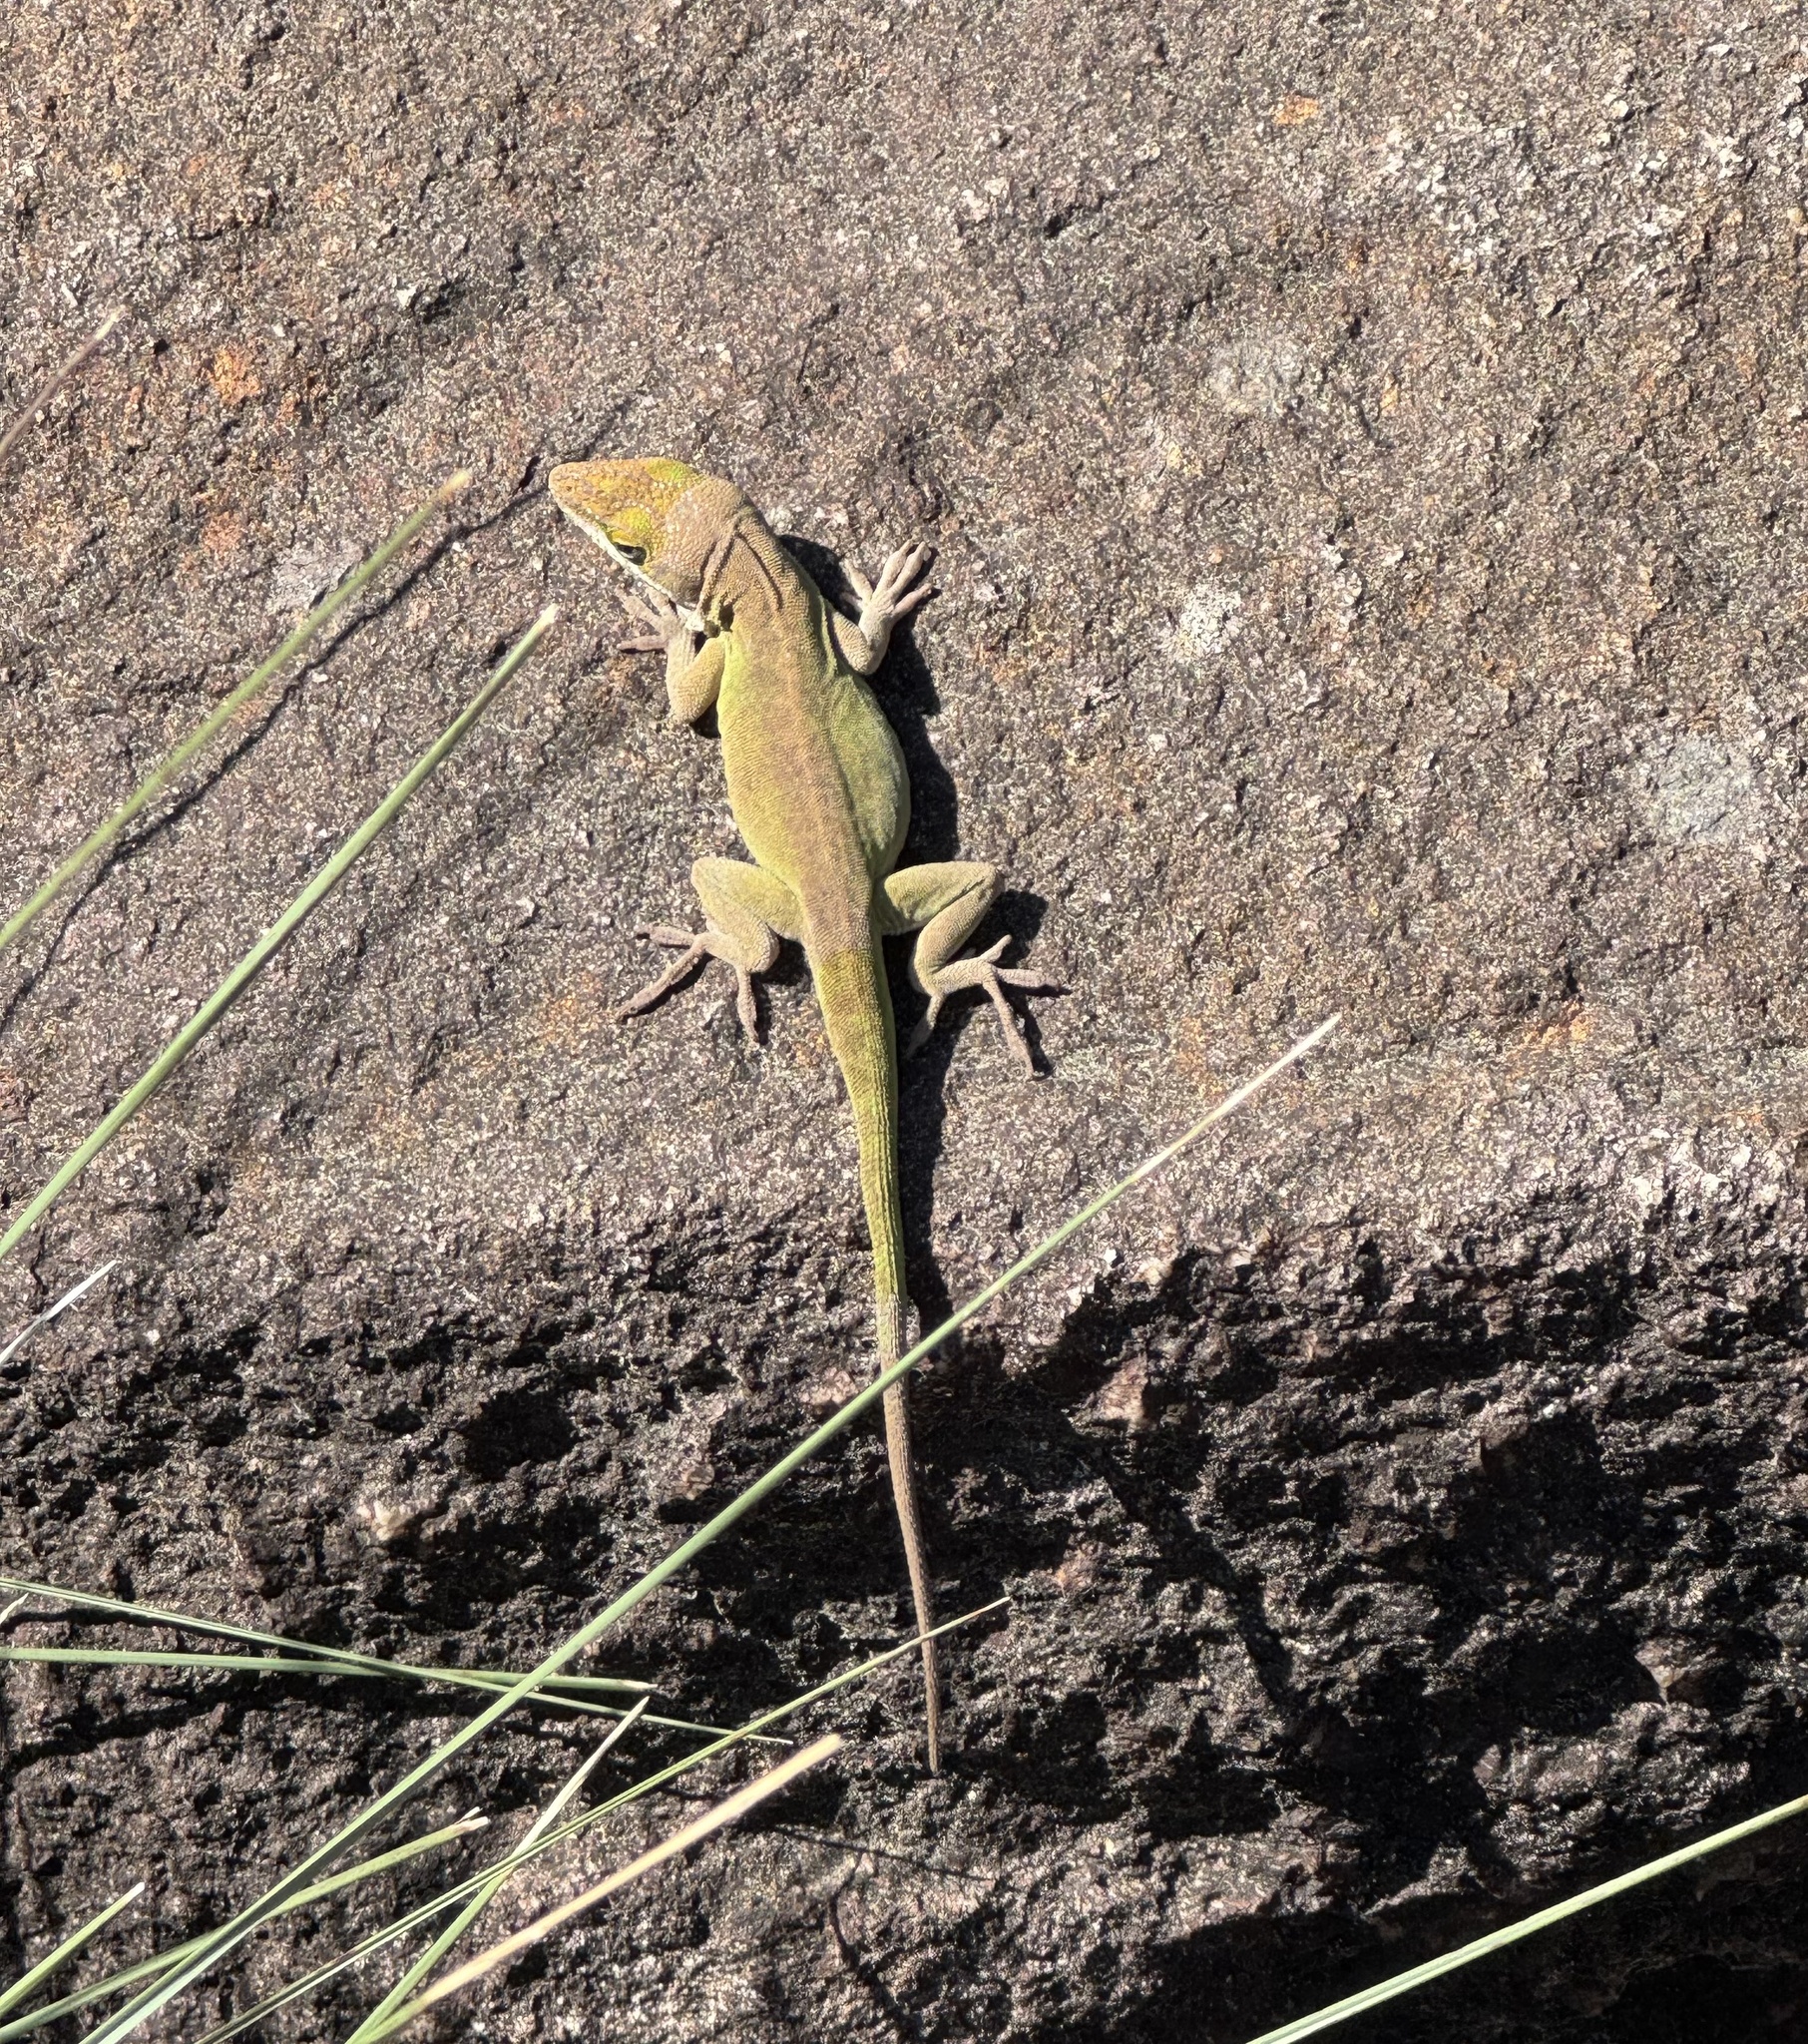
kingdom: Animalia
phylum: Chordata
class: Squamata
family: Dactyloidae
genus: Anolis
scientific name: Anolis carolinensis
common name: Green anole
